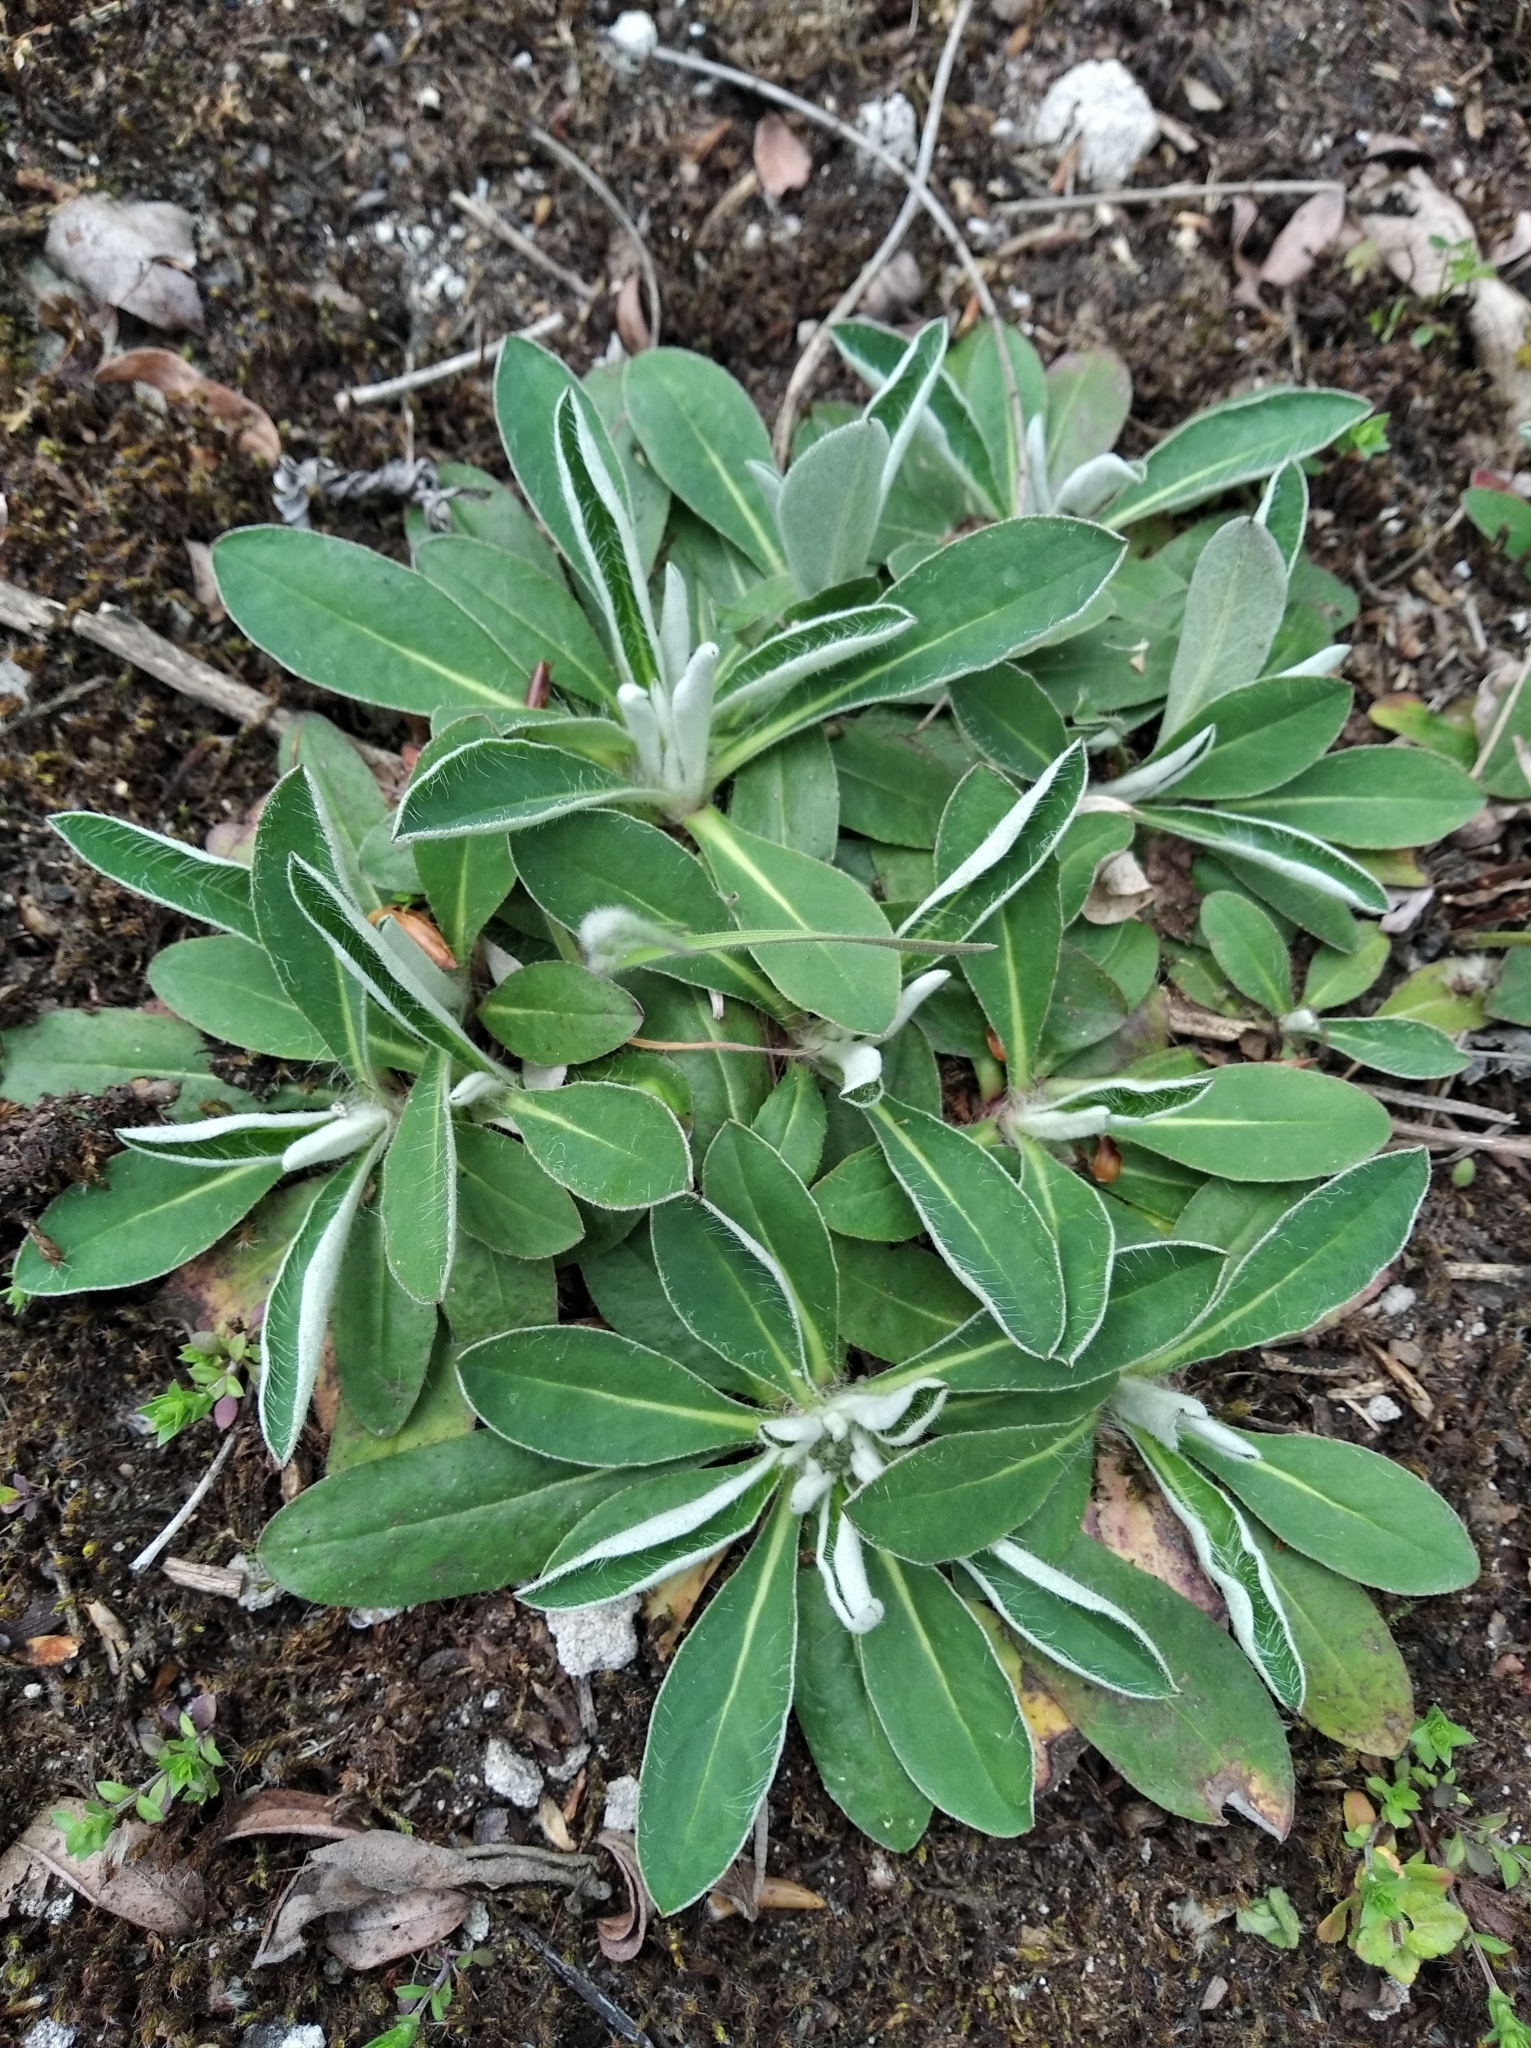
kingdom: Plantae
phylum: Tracheophyta
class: Magnoliopsida
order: Asterales
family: Asteraceae
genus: Pilosella
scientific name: Pilosella officinarum
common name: Mouse-ear hawkweed
